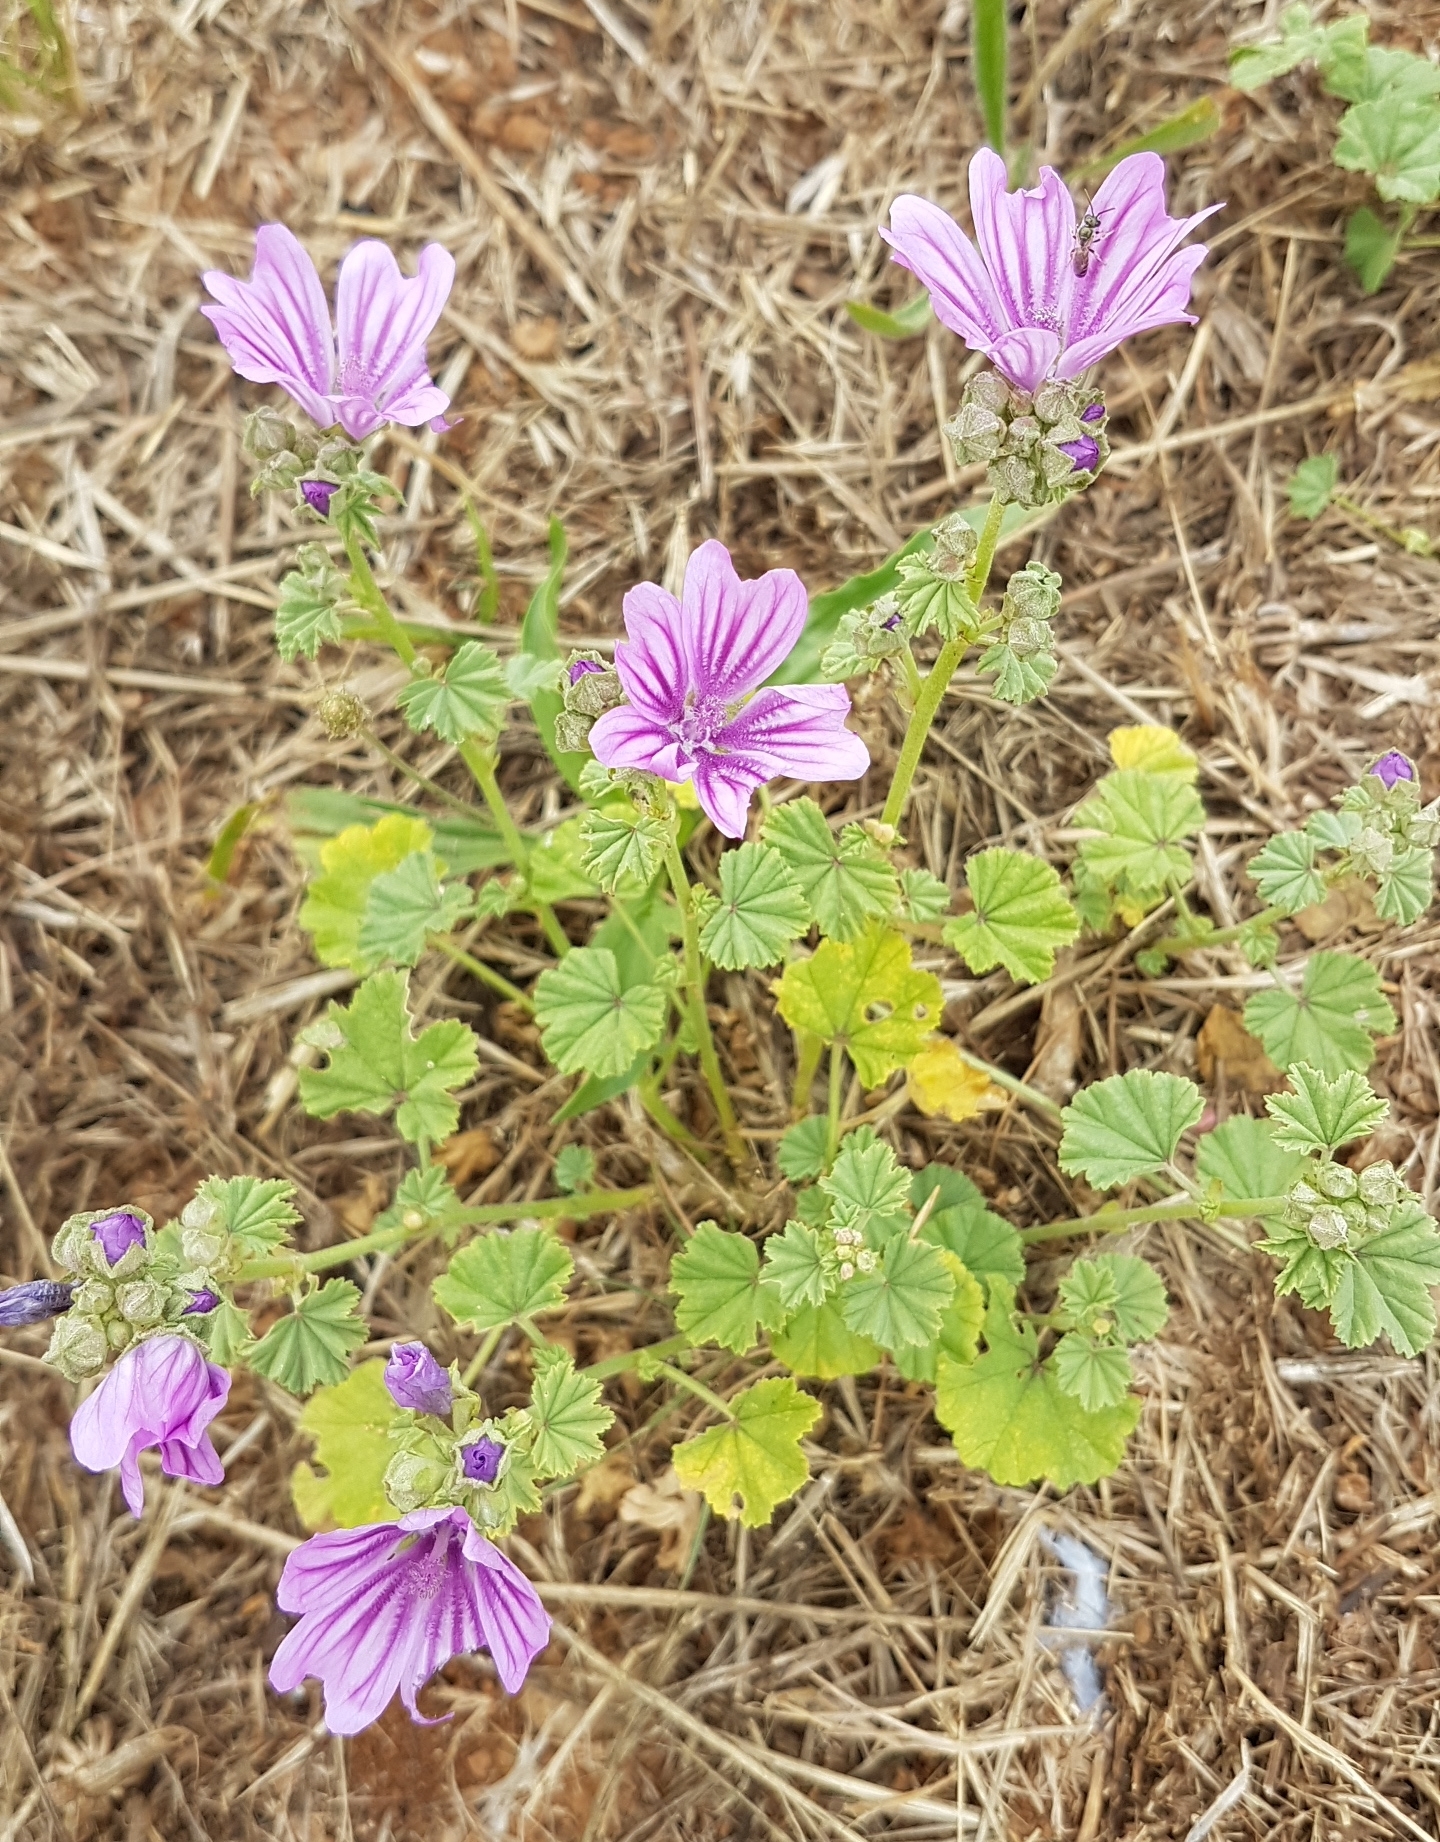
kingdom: Plantae
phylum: Tracheophyta
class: Magnoliopsida
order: Malvales
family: Malvaceae
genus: Malva
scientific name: Malva sylvestris
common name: Common mallow
